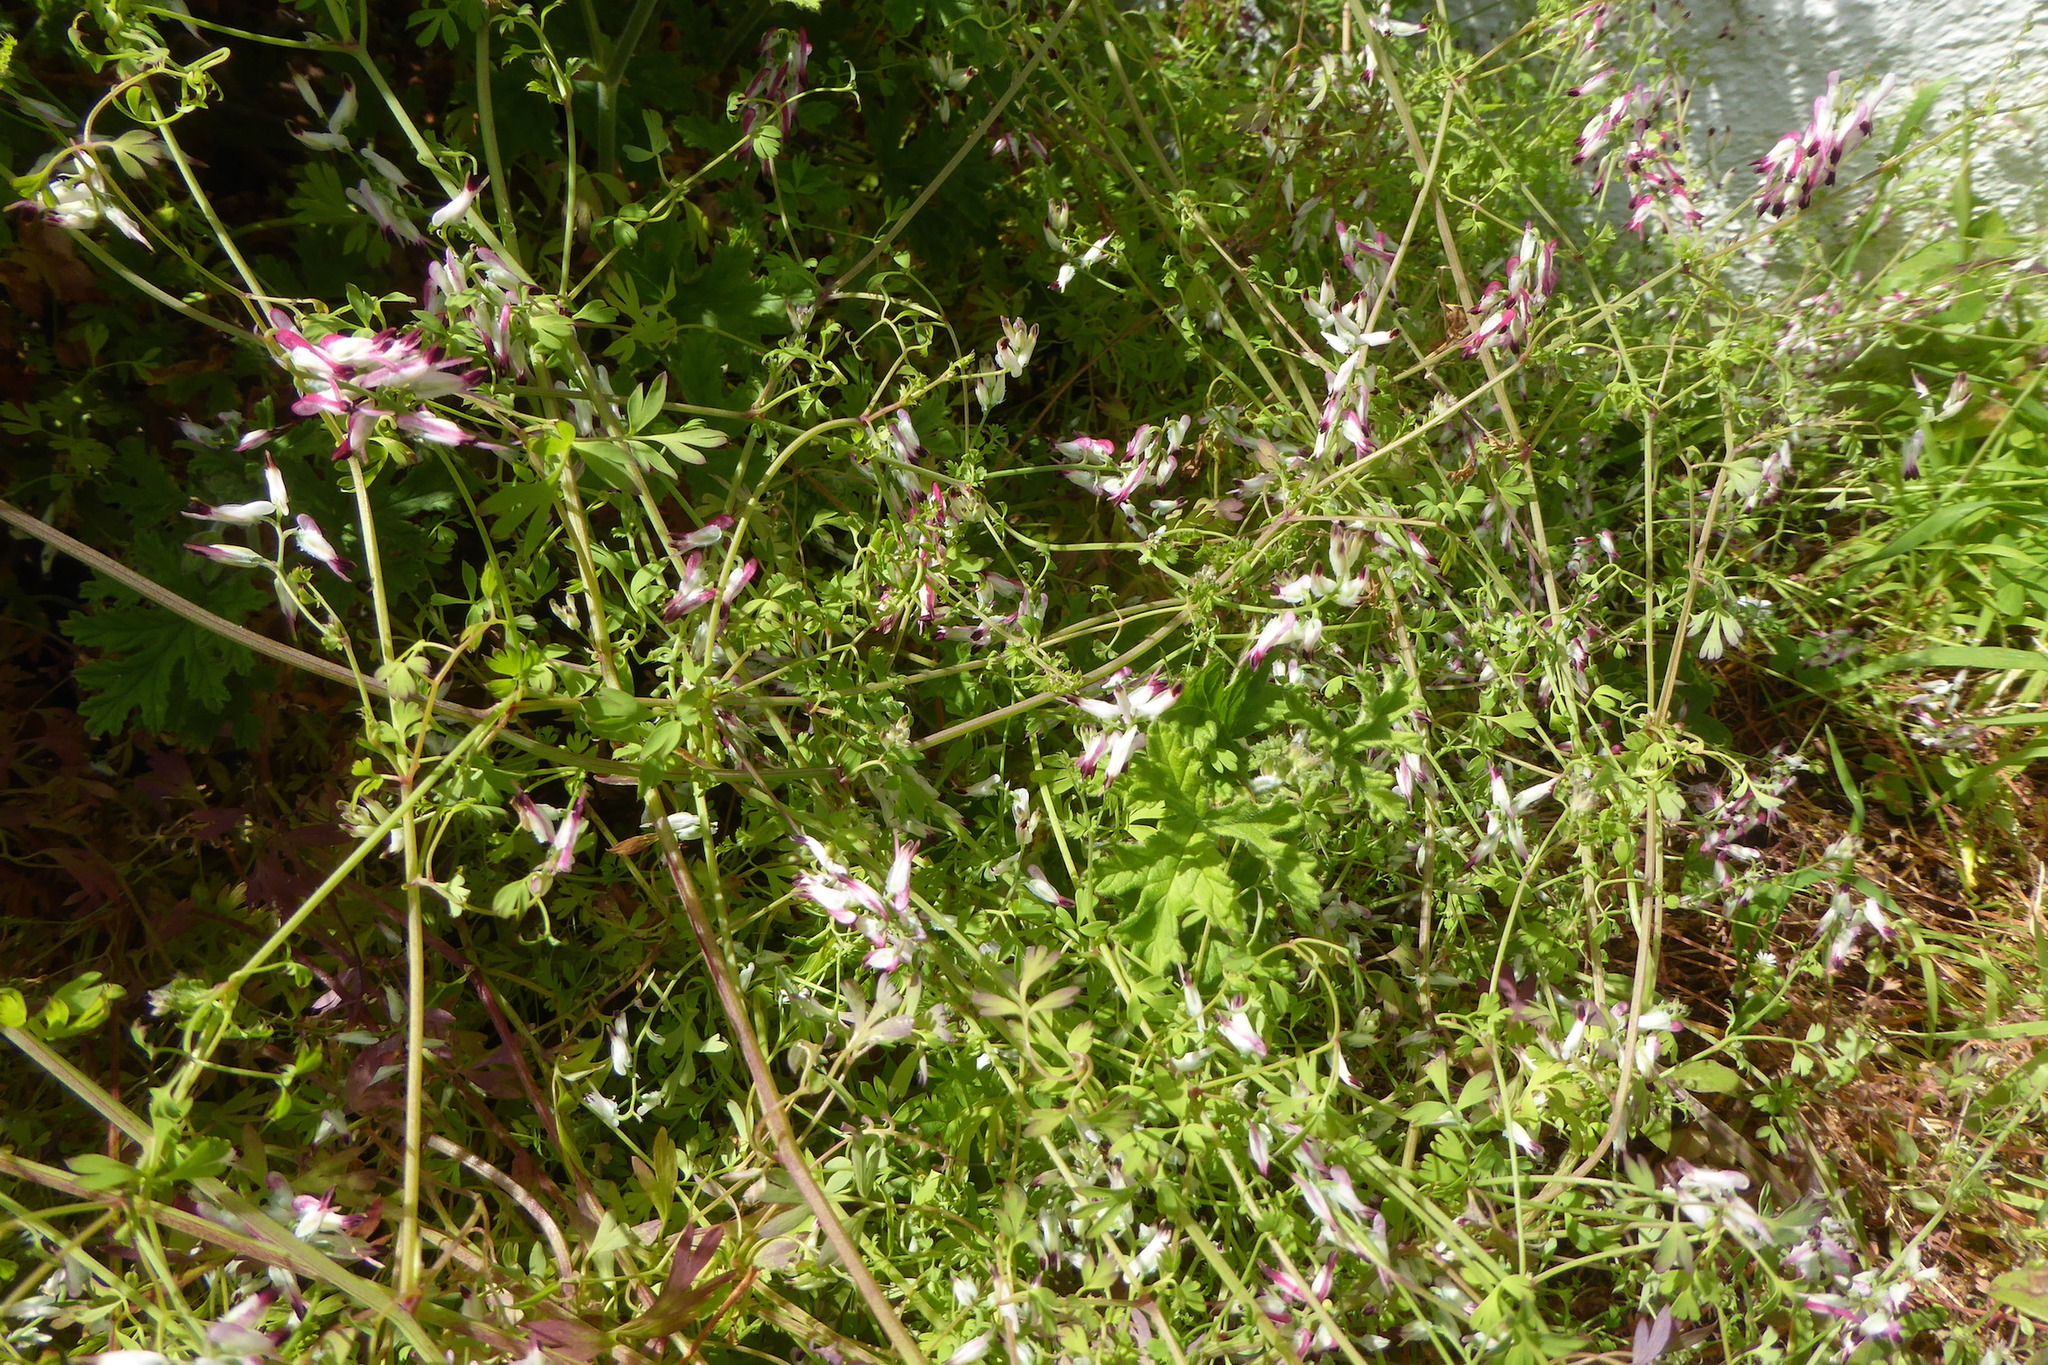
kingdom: Plantae
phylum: Tracheophyta
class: Magnoliopsida
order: Ranunculales
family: Papaveraceae
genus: Fumaria
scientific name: Fumaria capreolata
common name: White ramping-fumitory
